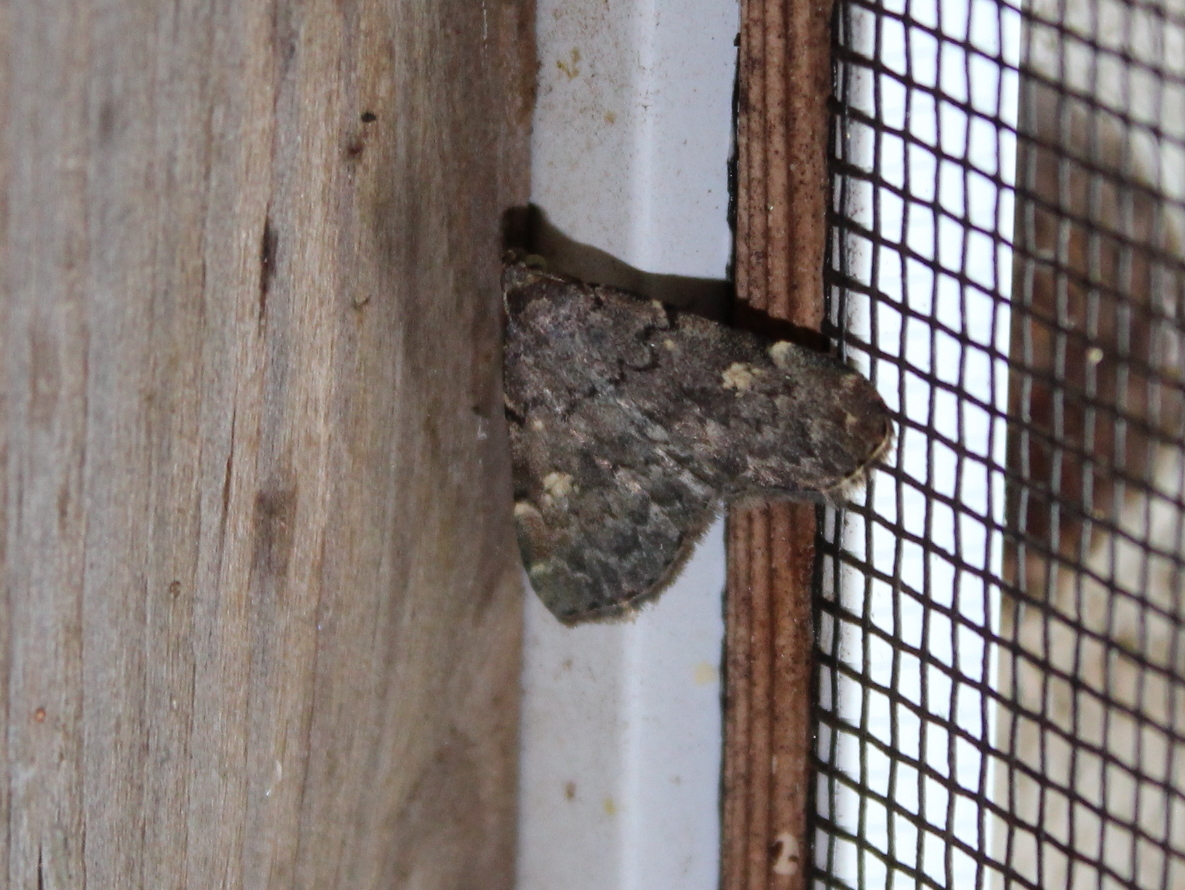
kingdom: Animalia
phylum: Arthropoda
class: Insecta
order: Lepidoptera
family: Erebidae
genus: Idia
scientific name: Idia aemula
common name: Common idia moth
